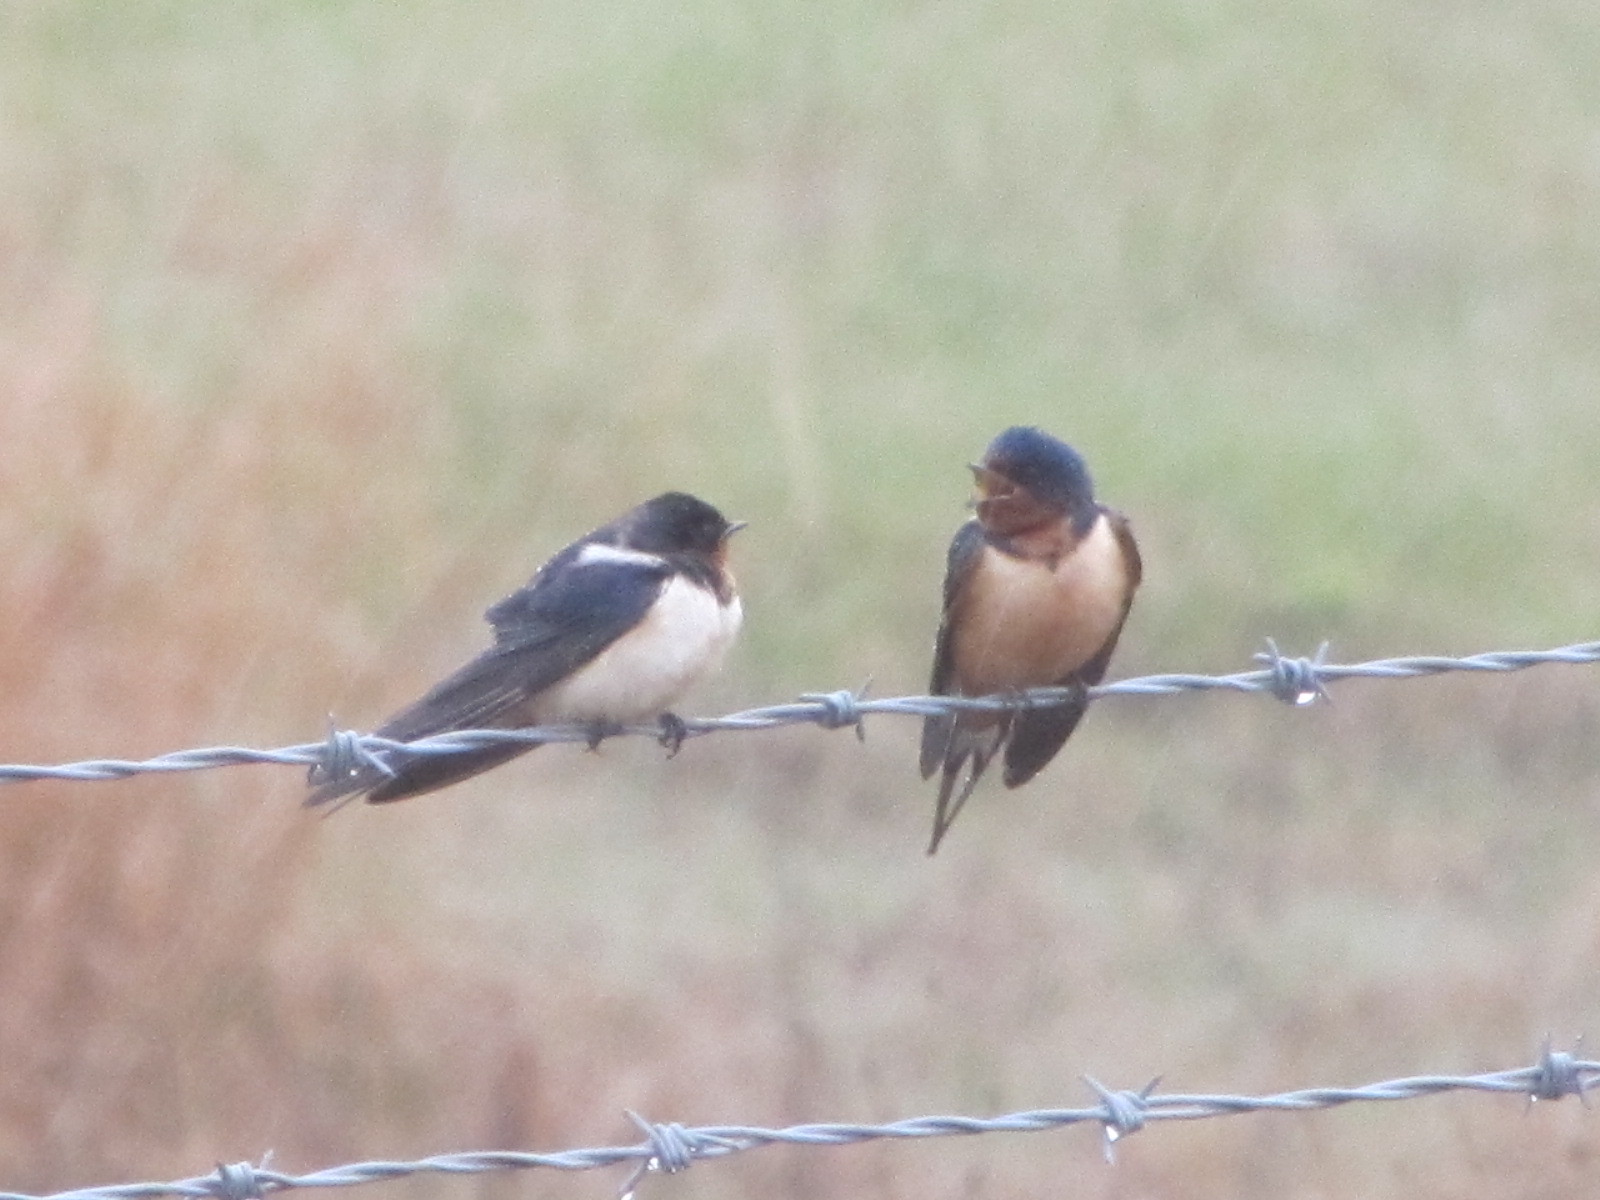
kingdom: Animalia
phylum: Chordata
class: Aves
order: Passeriformes
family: Hirundinidae
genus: Hirundo
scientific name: Hirundo rustica
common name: Barn swallow
